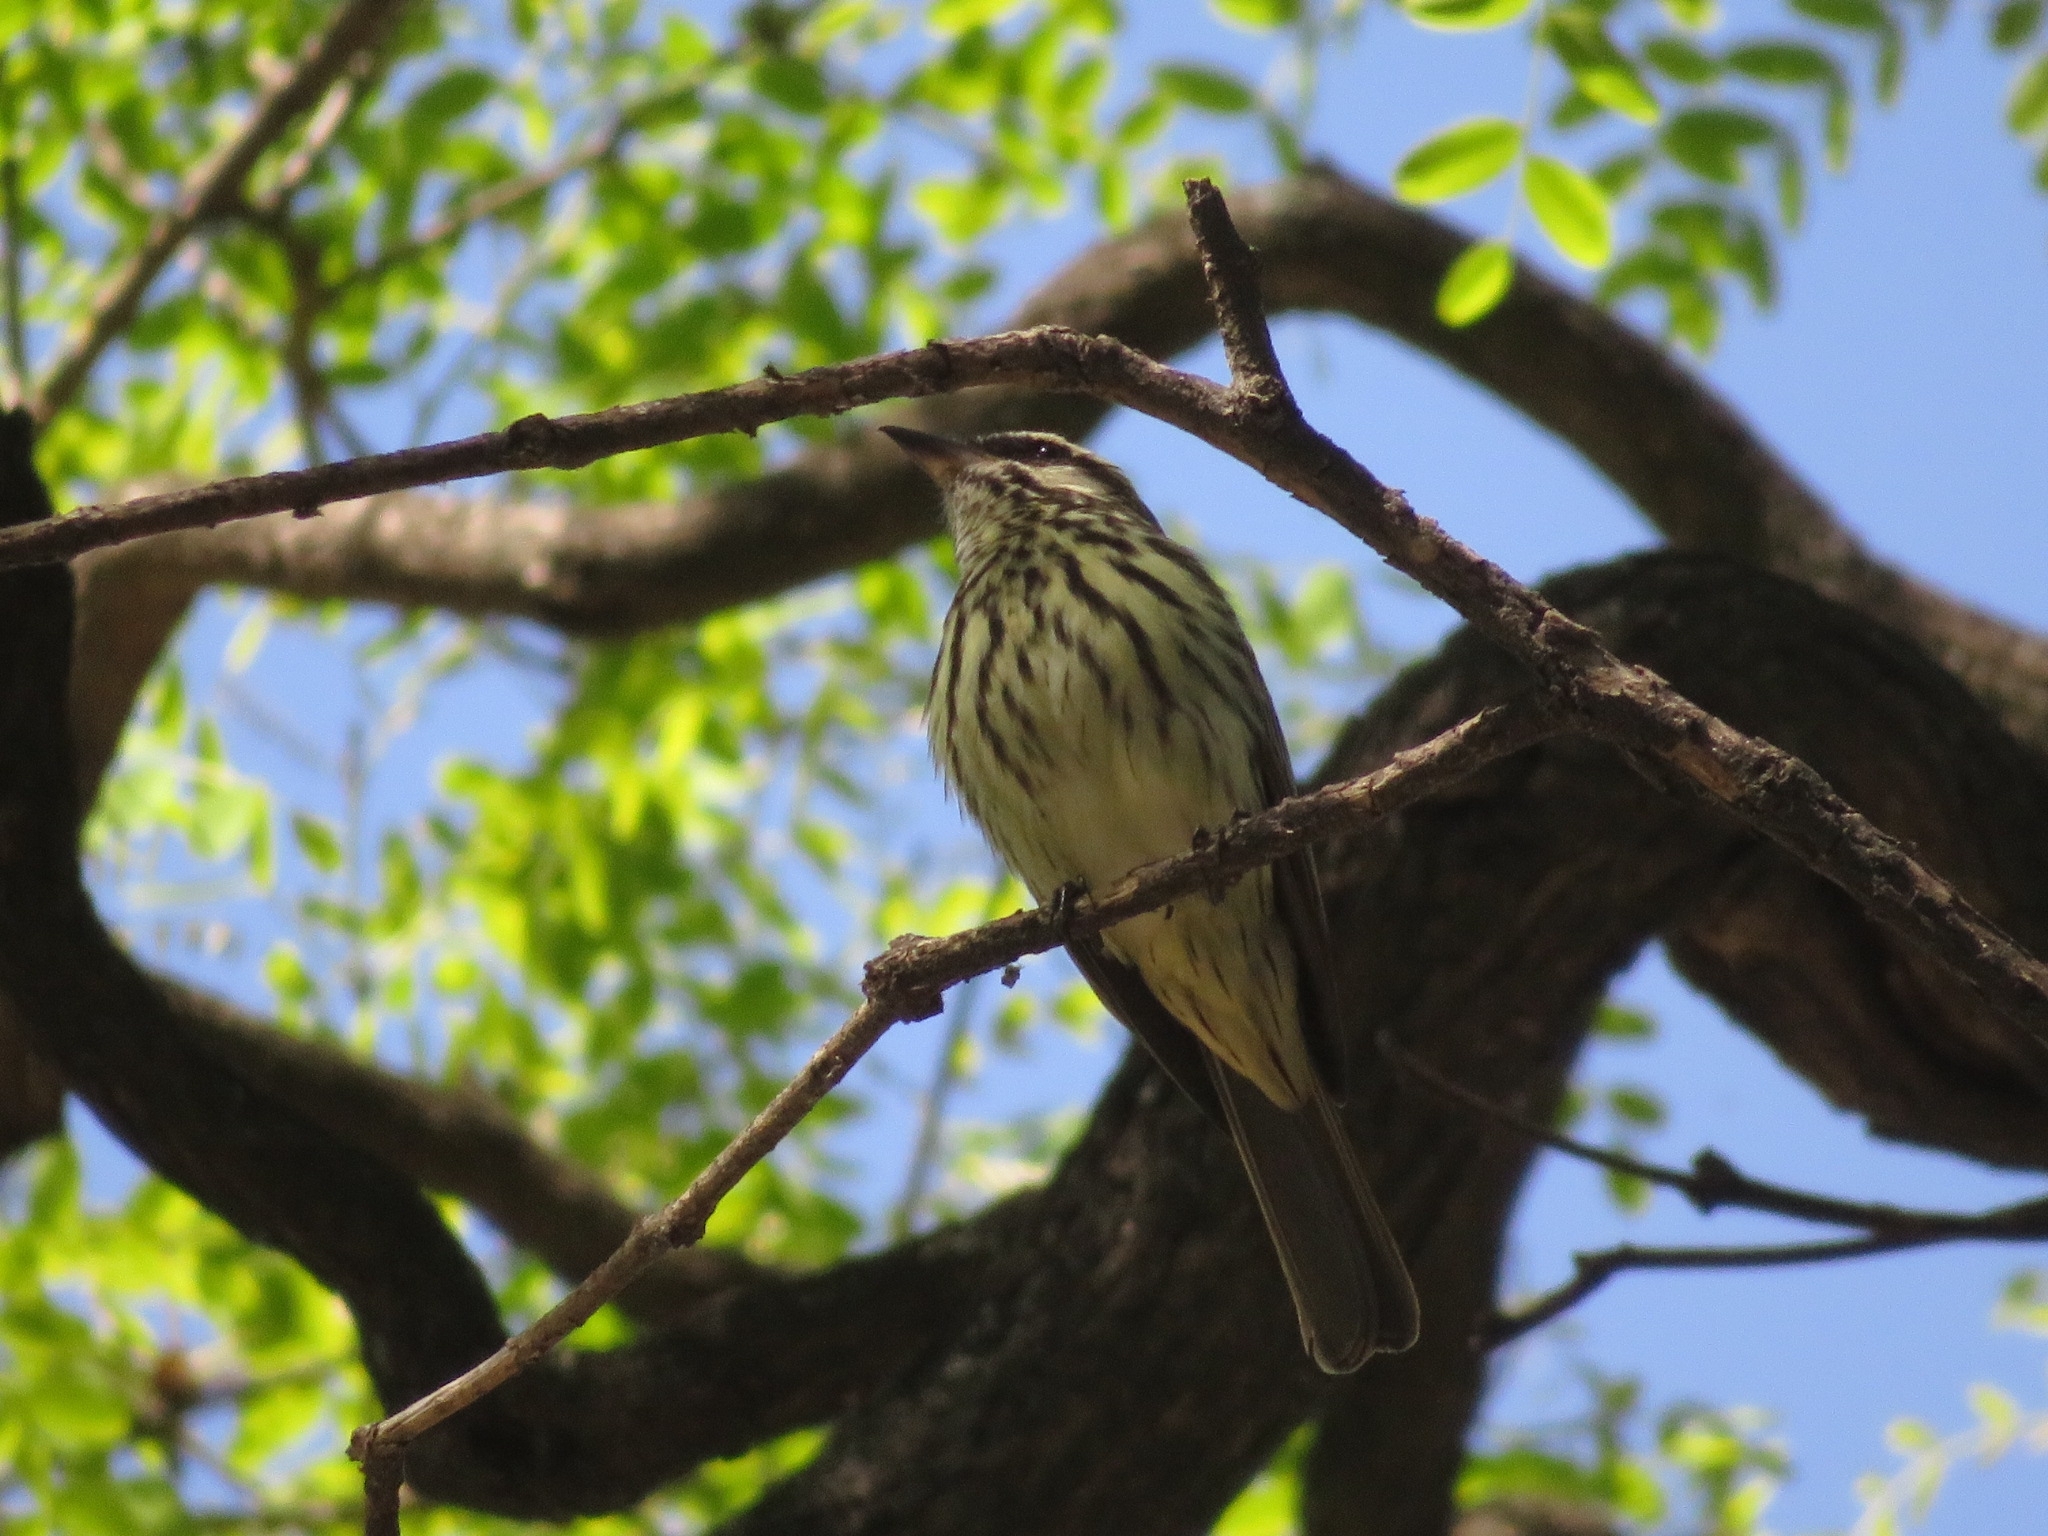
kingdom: Animalia
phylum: Chordata
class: Aves
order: Passeriformes
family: Tyrannidae
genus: Myiodynastes
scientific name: Myiodynastes maculatus
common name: Streaked flycatcher
